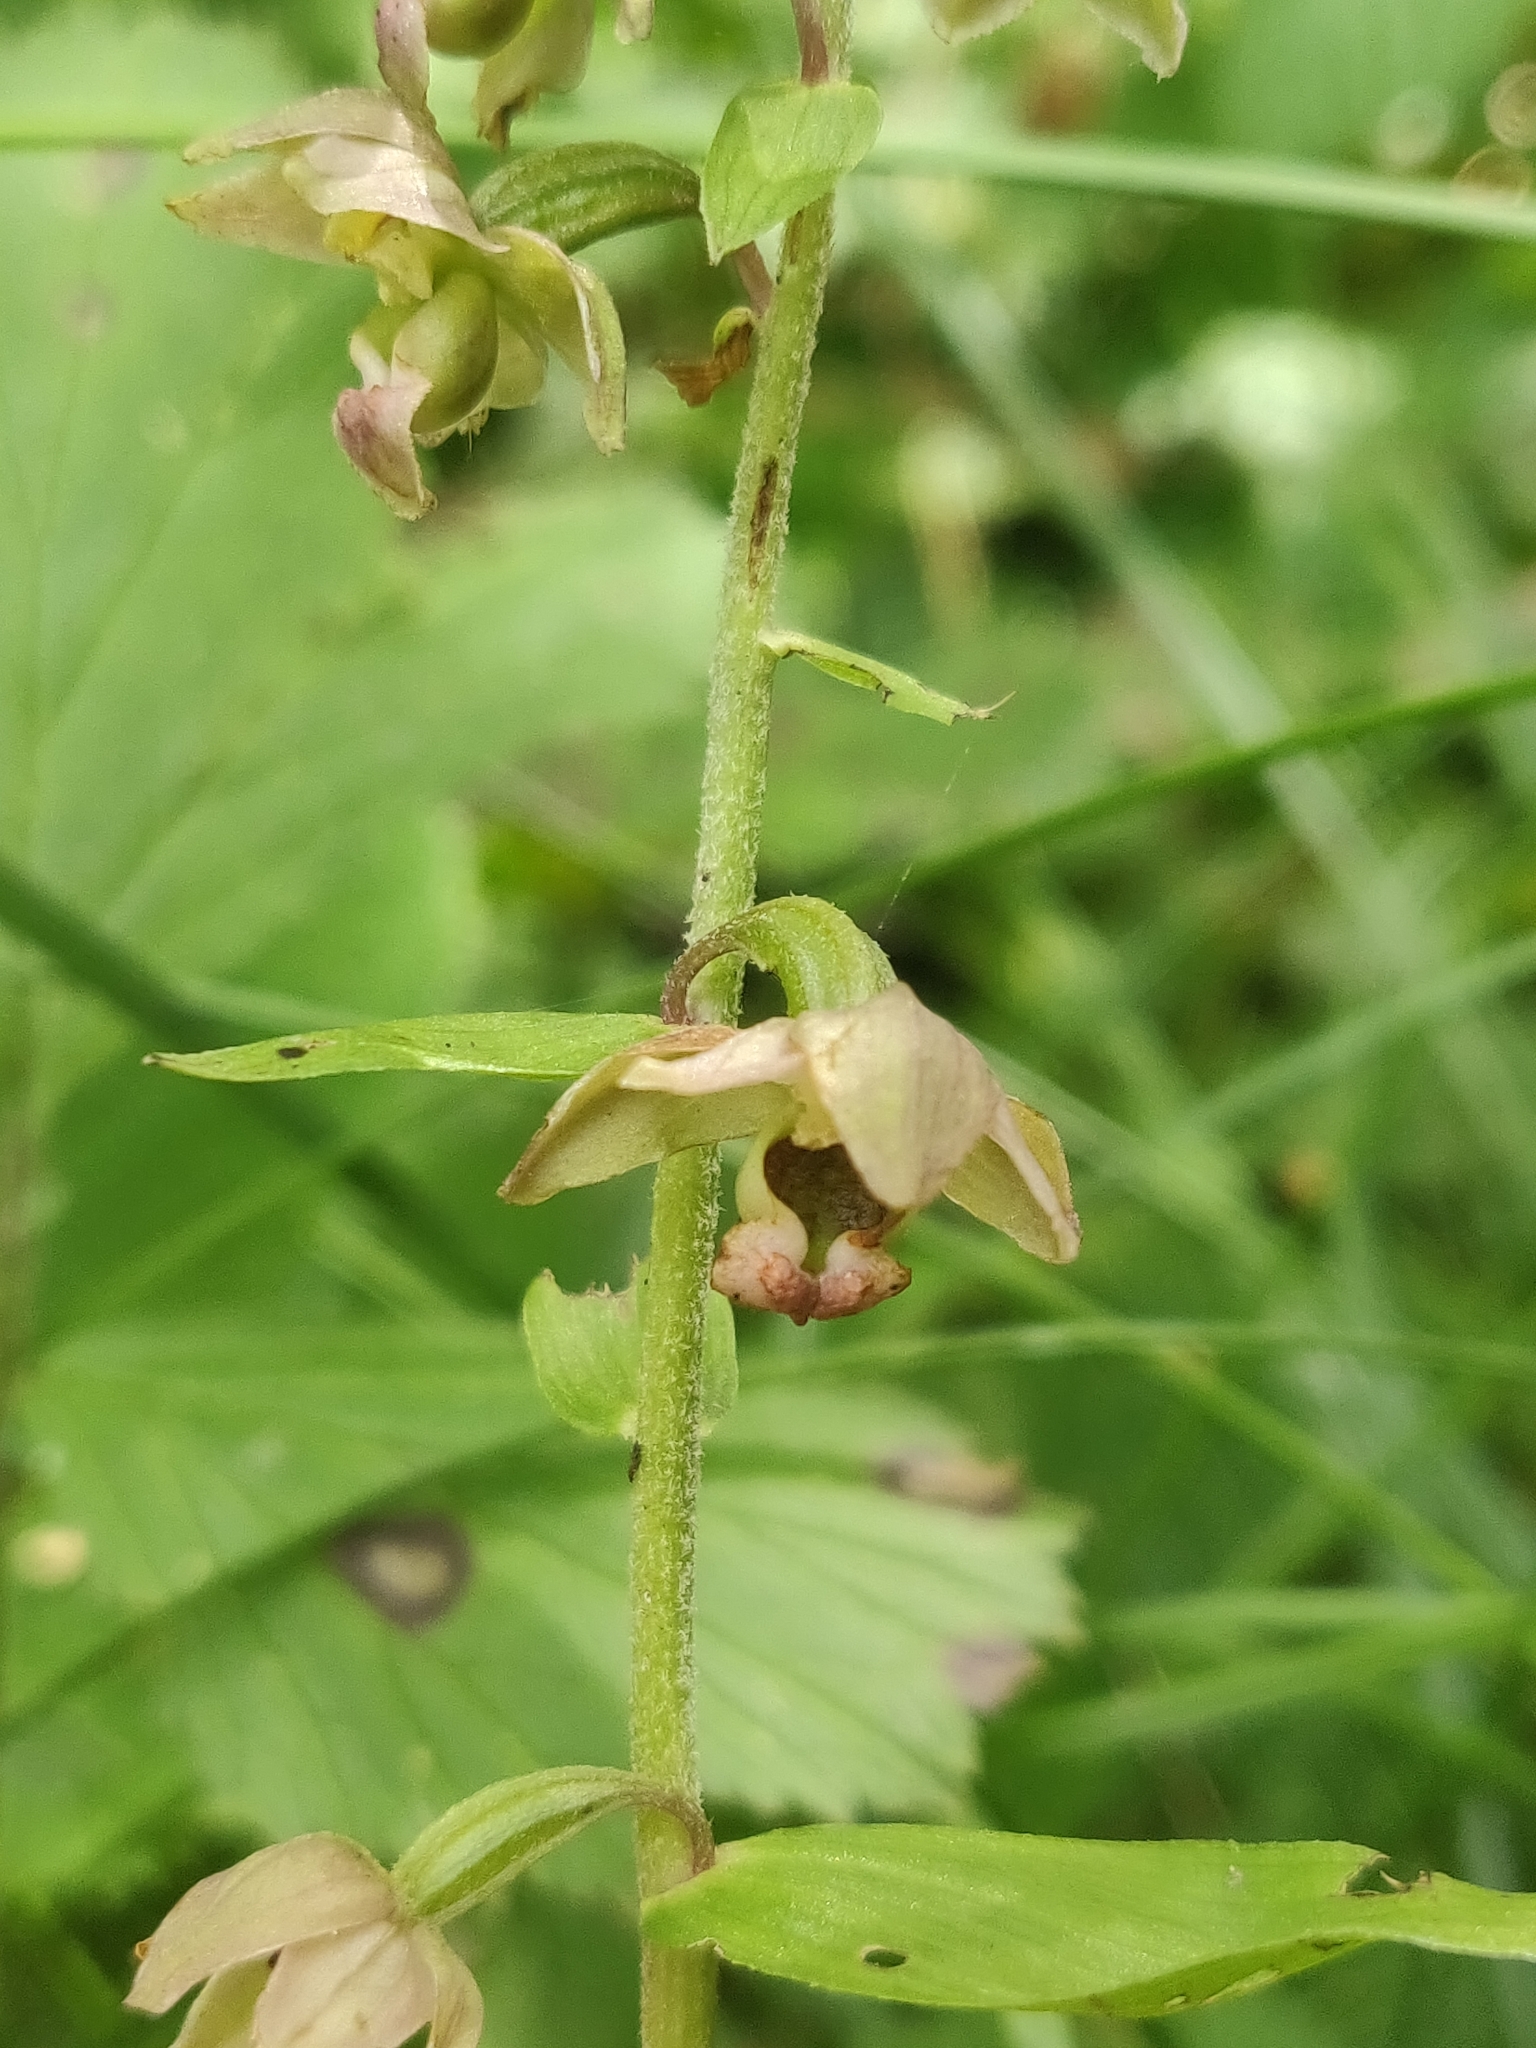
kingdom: Plantae
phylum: Tracheophyta
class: Liliopsida
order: Asparagales
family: Orchidaceae
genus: Epipactis
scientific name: Epipactis helleborine
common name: Broad-leaved helleborine
